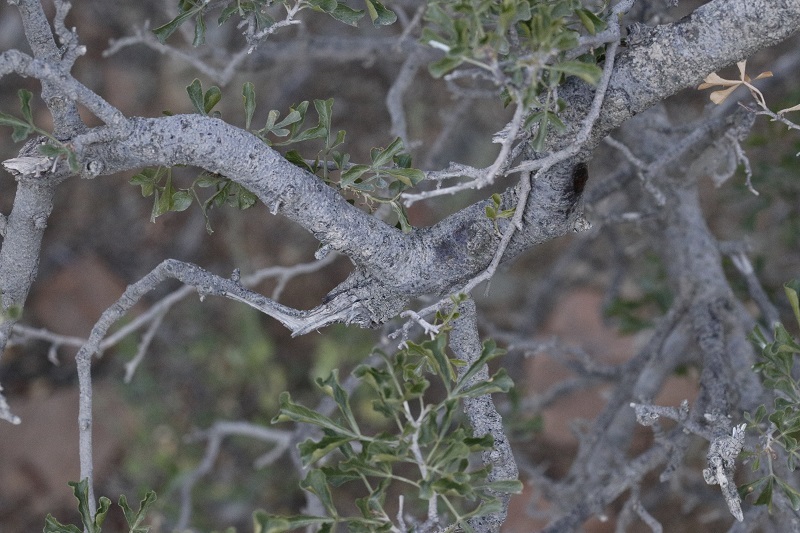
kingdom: Plantae
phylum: Tracheophyta
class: Magnoliopsida
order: Sapindales
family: Anacardiaceae
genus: Searsia
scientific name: Searsia burchellii
